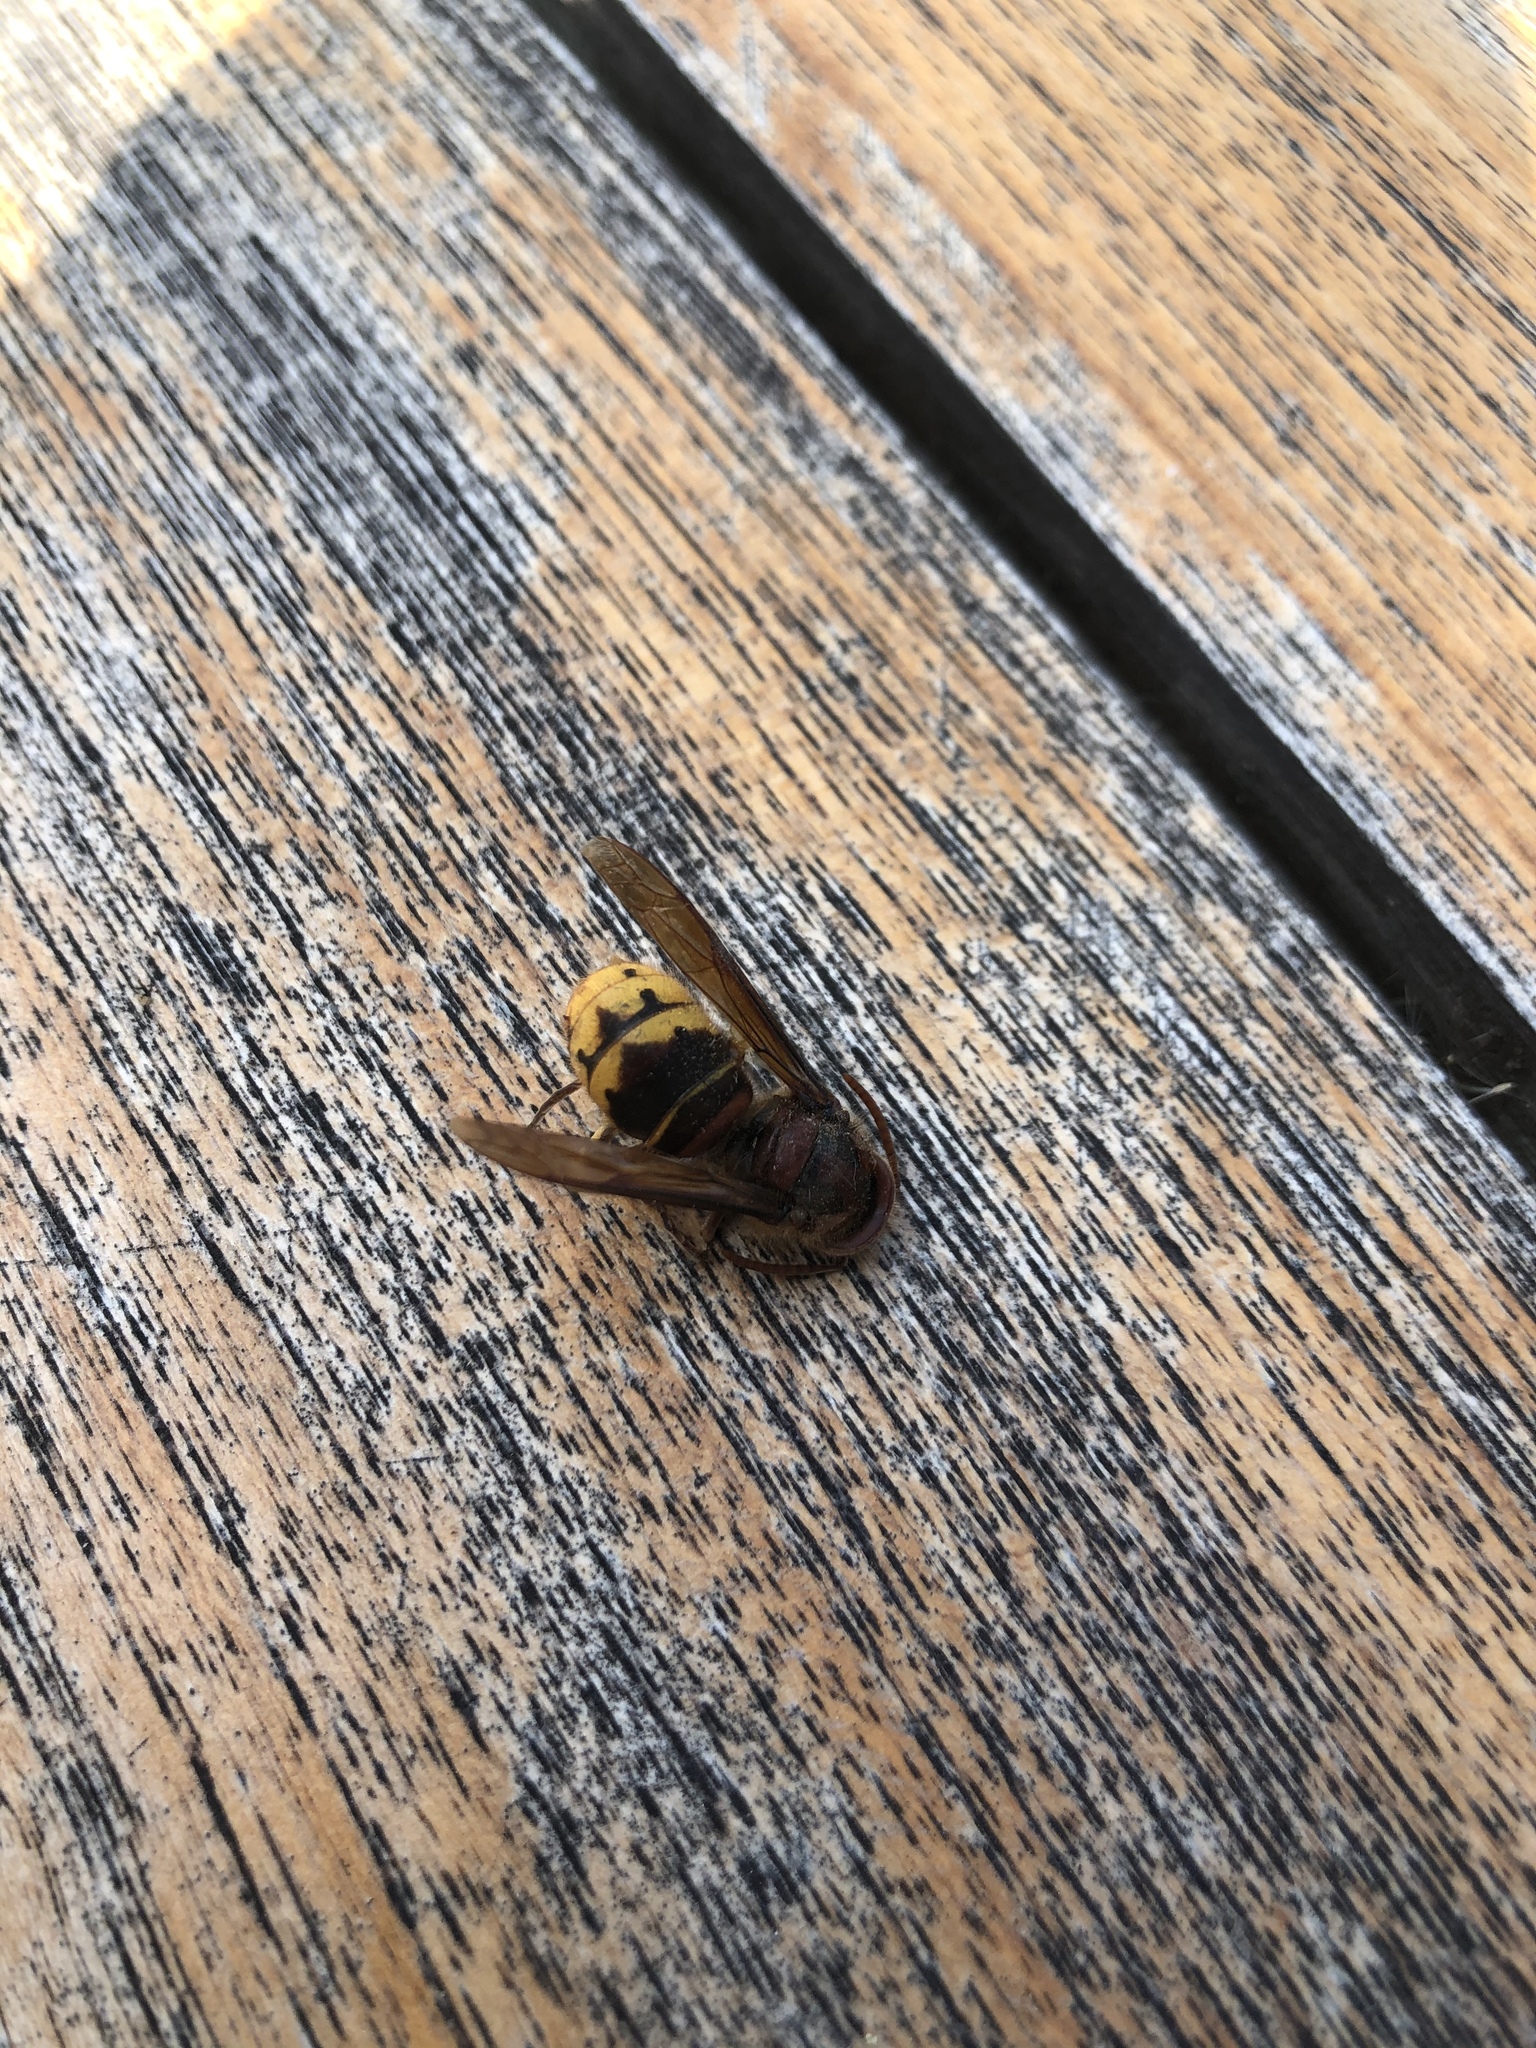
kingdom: Animalia
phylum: Arthropoda
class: Insecta
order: Hymenoptera
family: Vespidae
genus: Vespa
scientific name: Vespa crabro
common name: Hornet
